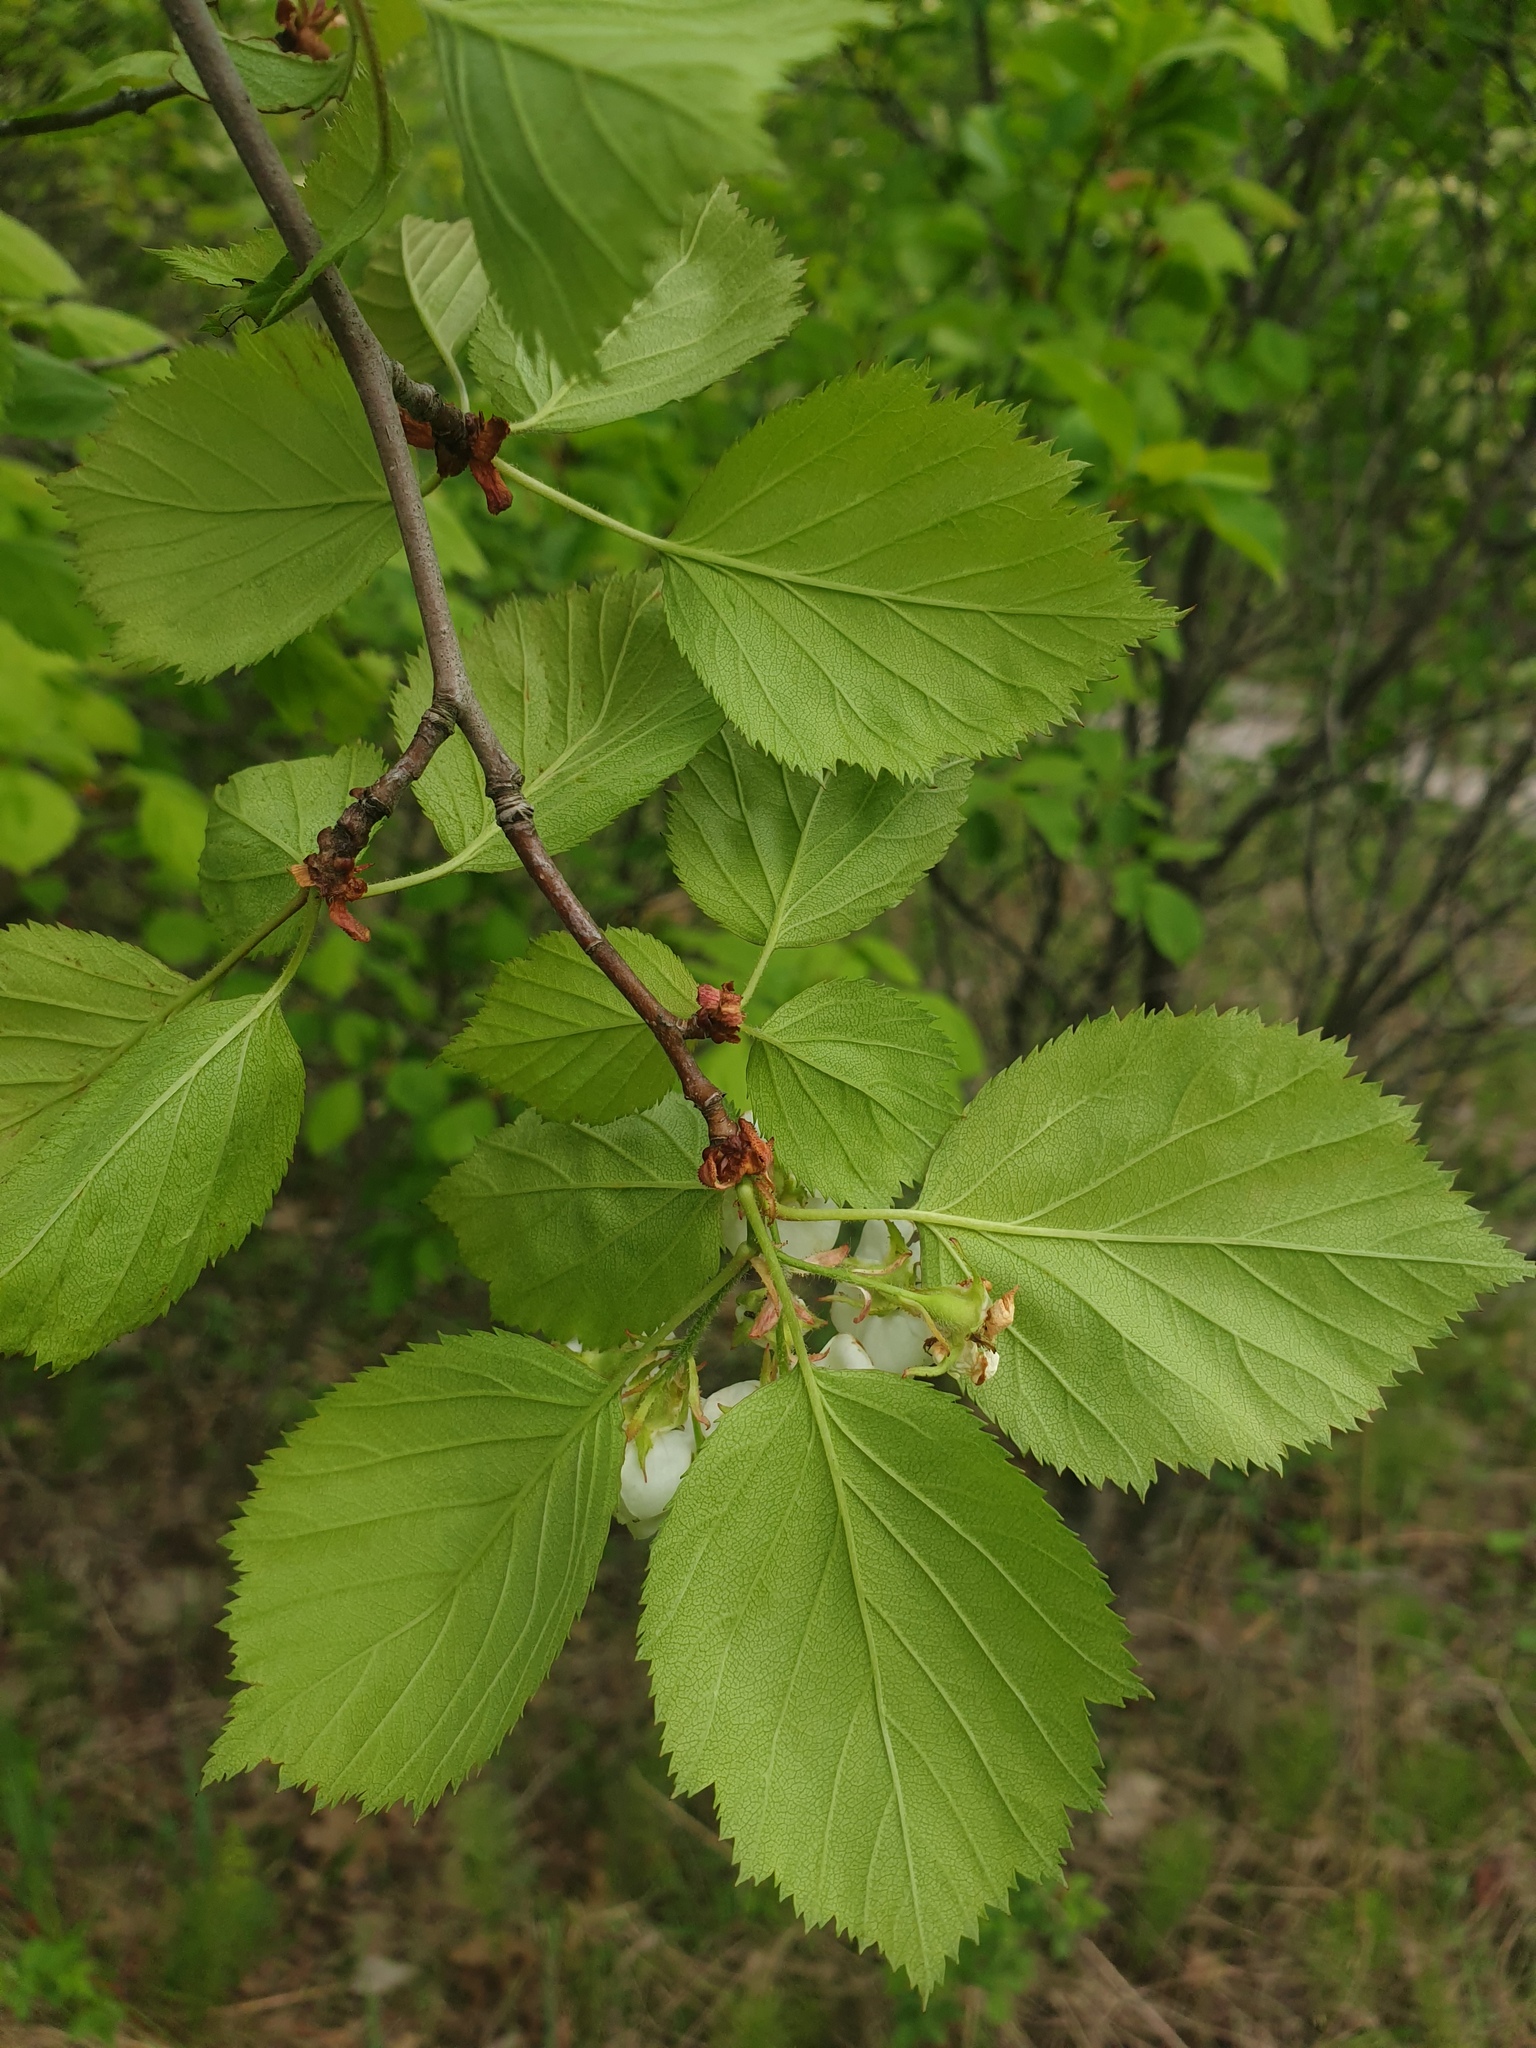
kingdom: Plantae
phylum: Tracheophyta
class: Magnoliopsida
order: Rosales
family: Rosaceae
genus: Crataegus
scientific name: Crataegus coccinea
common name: Scarlet hawthorn
